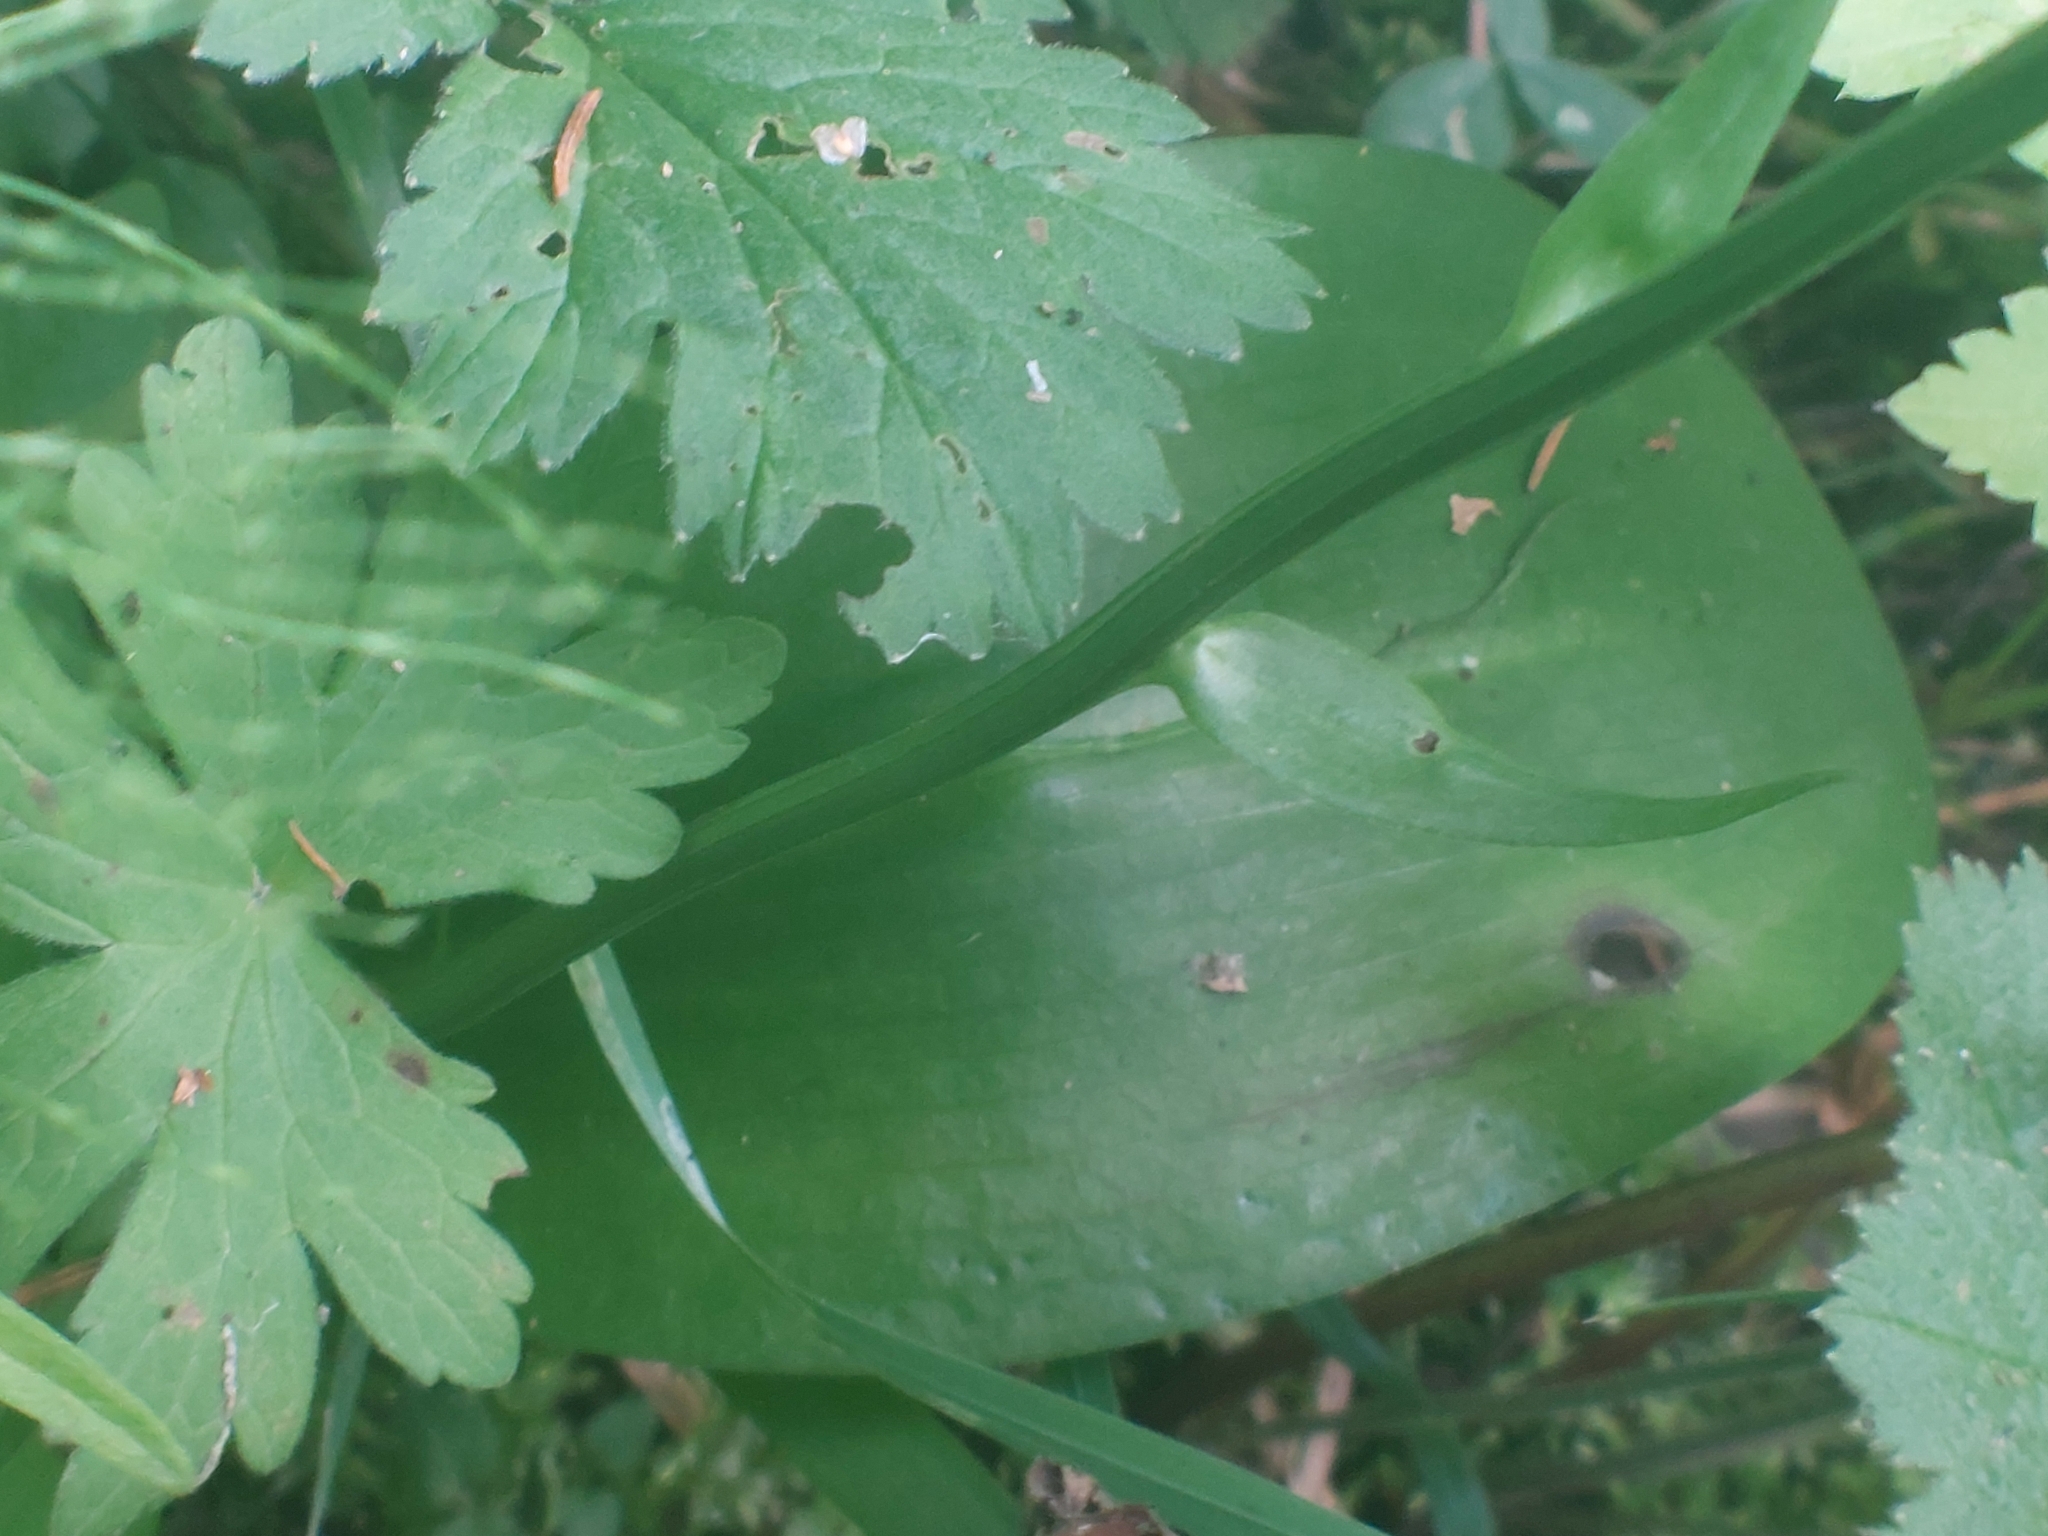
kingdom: Plantae
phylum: Tracheophyta
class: Liliopsida
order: Asparagales
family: Orchidaceae
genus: Platanthera
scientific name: Platanthera chlorantha
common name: Greater butterfly-orchid
